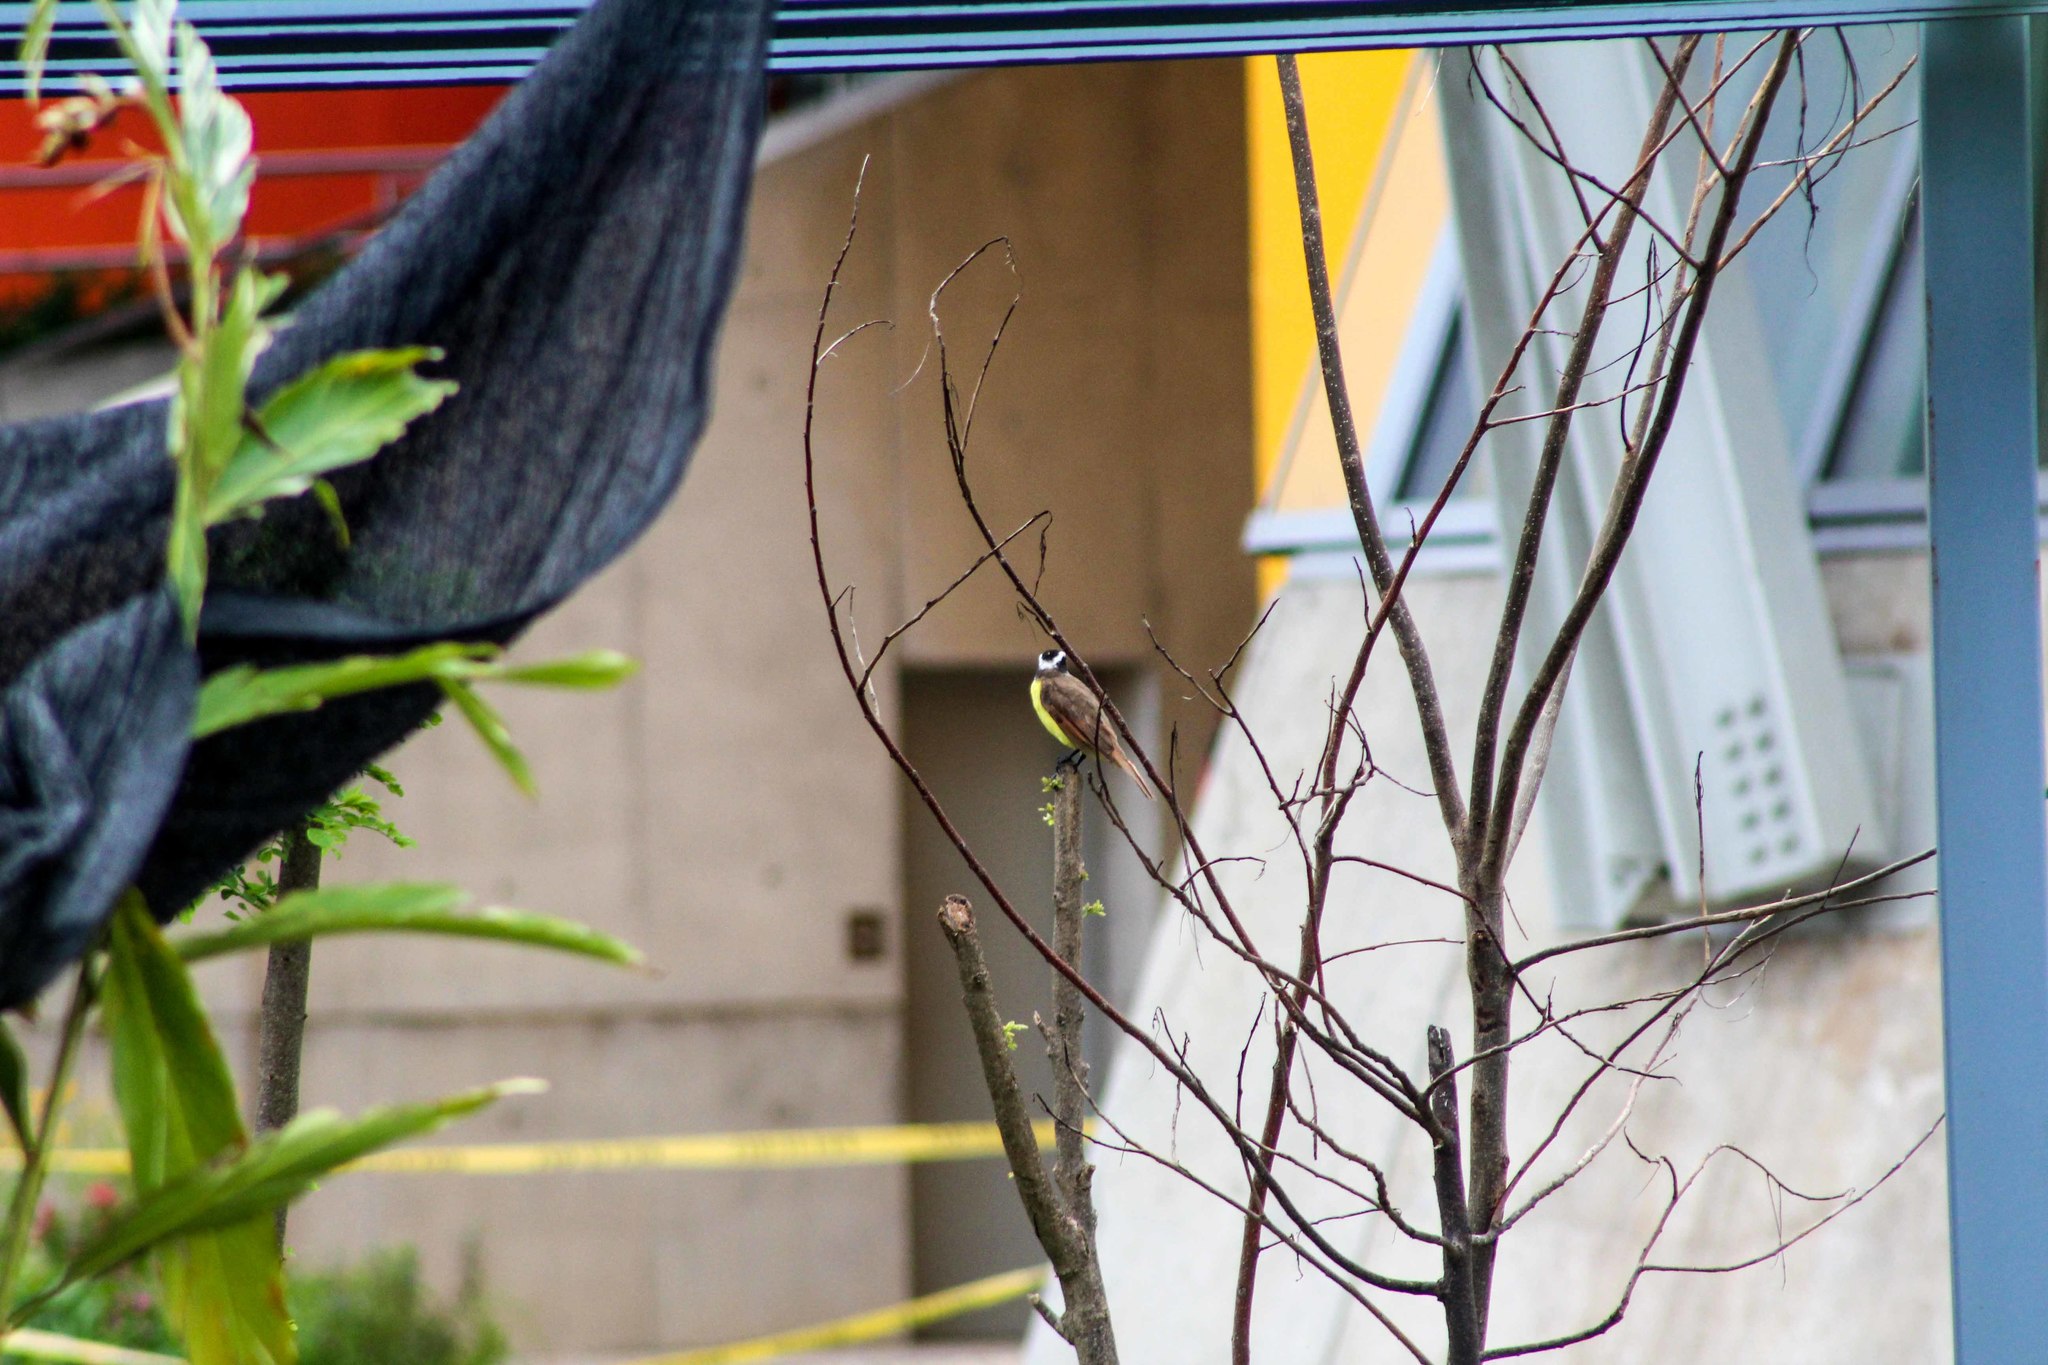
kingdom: Animalia
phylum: Chordata
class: Aves
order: Passeriformes
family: Tyrannidae
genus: Pitangus
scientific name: Pitangus sulphuratus
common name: Great kiskadee
